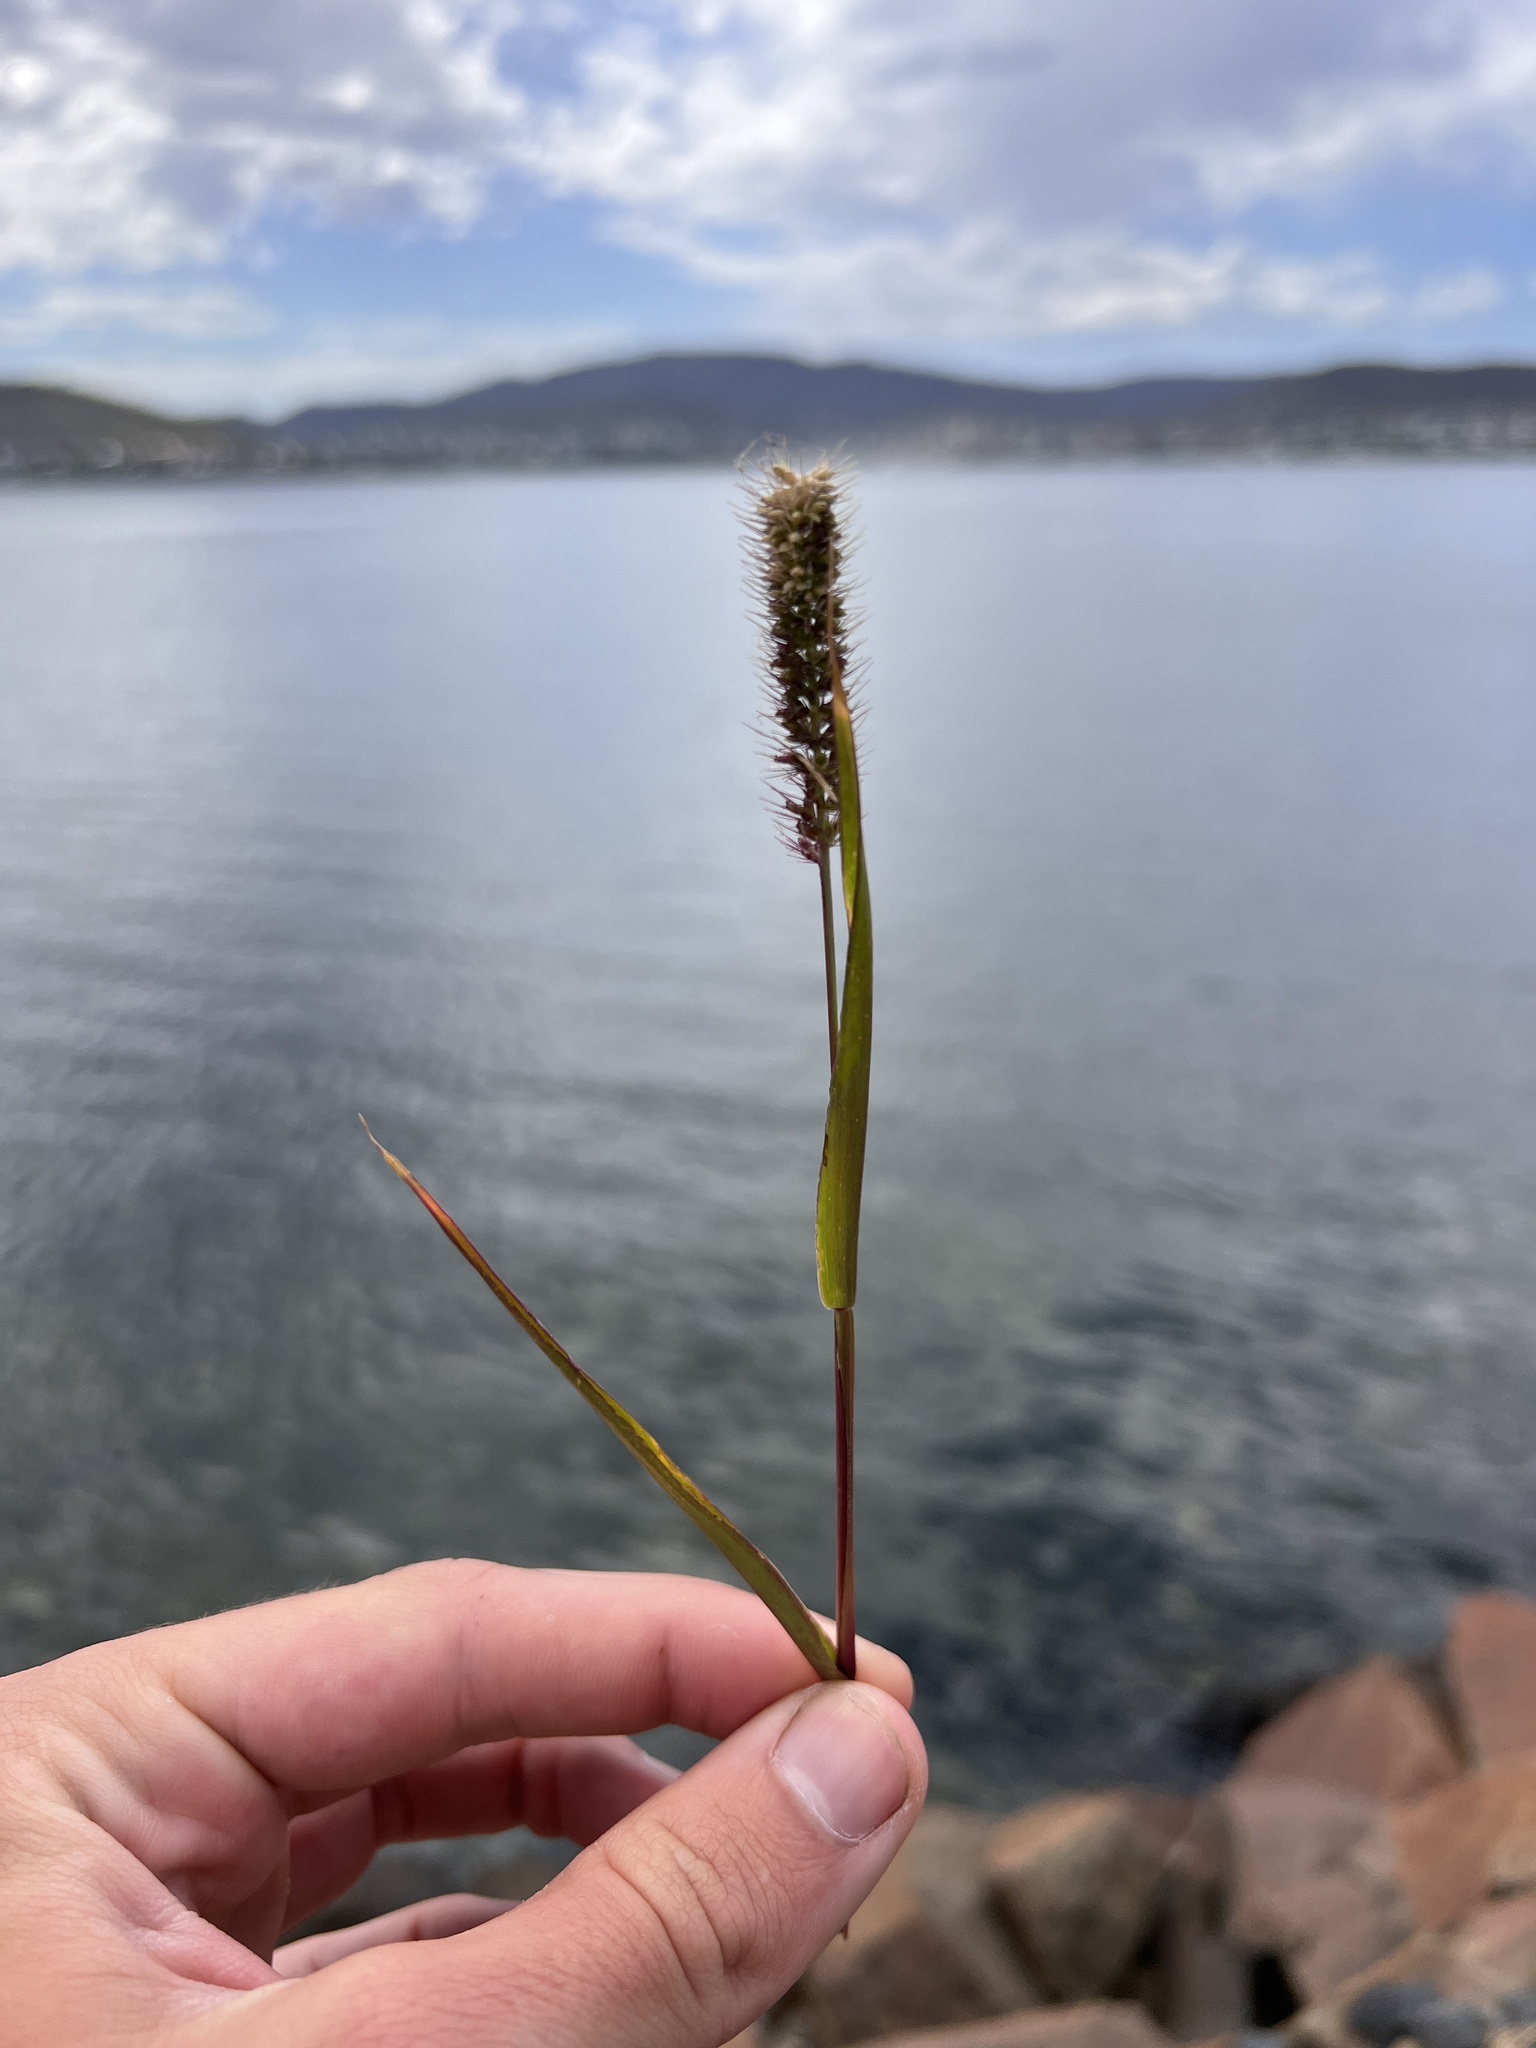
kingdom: Plantae
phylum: Tracheophyta
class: Liliopsida
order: Poales
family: Poaceae
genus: Setaria
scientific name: Setaria verticillata
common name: Hooked bristlegrass
